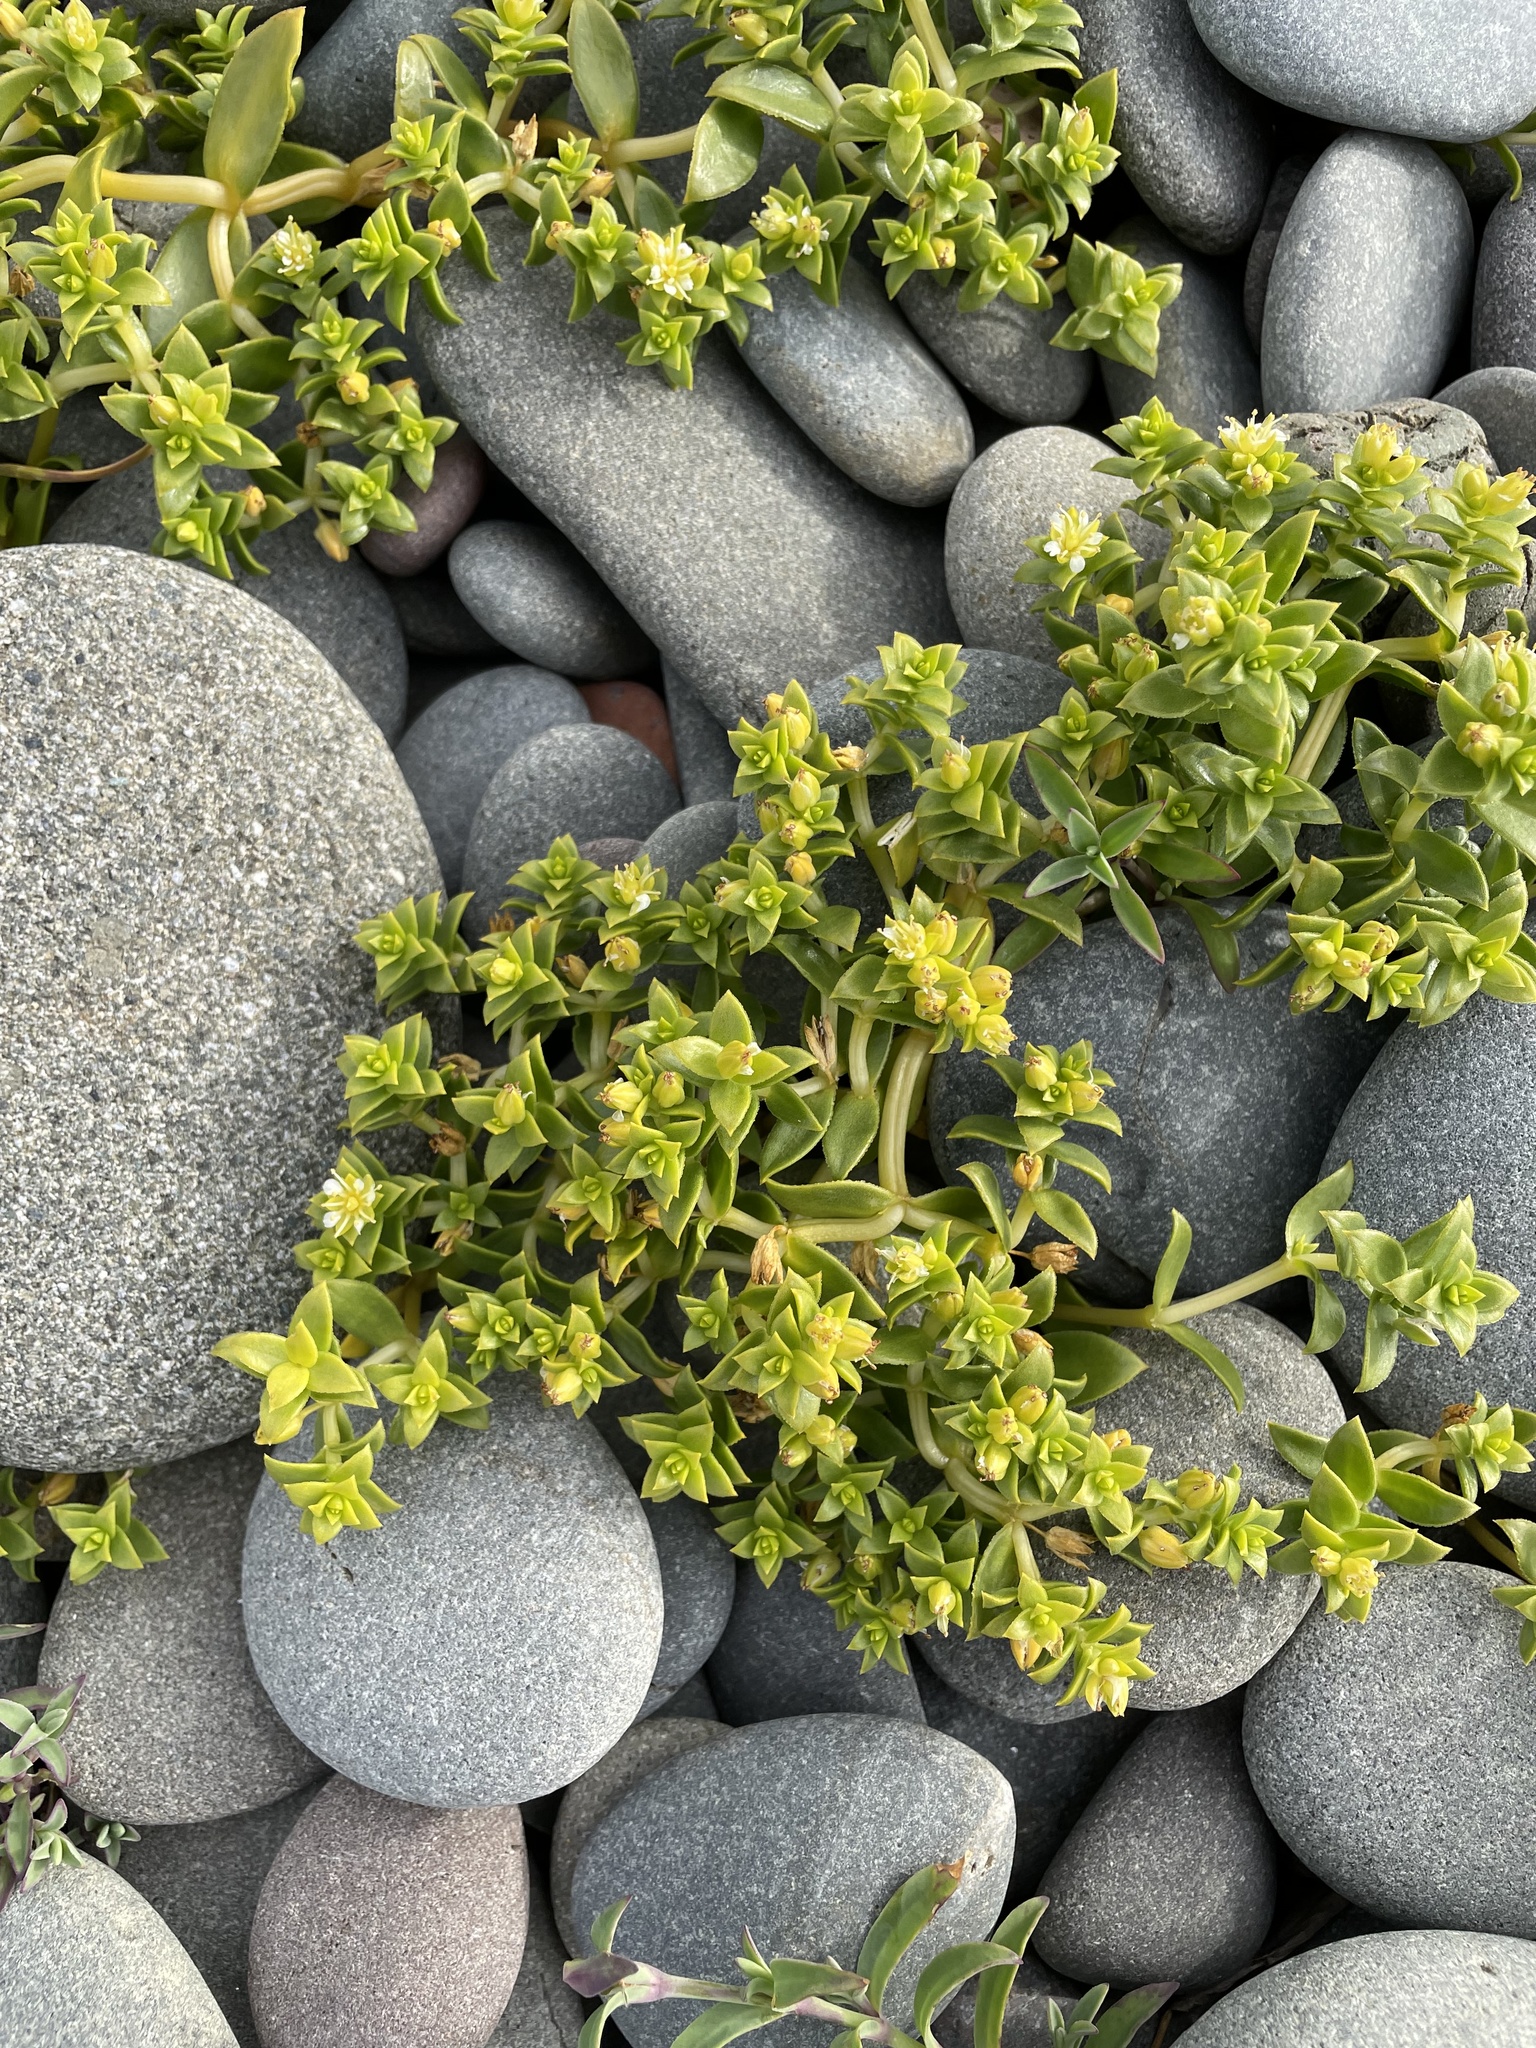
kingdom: Plantae
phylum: Tracheophyta
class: Magnoliopsida
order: Caryophyllales
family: Caryophyllaceae
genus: Honckenya
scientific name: Honckenya peploides
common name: Sea sandwort
